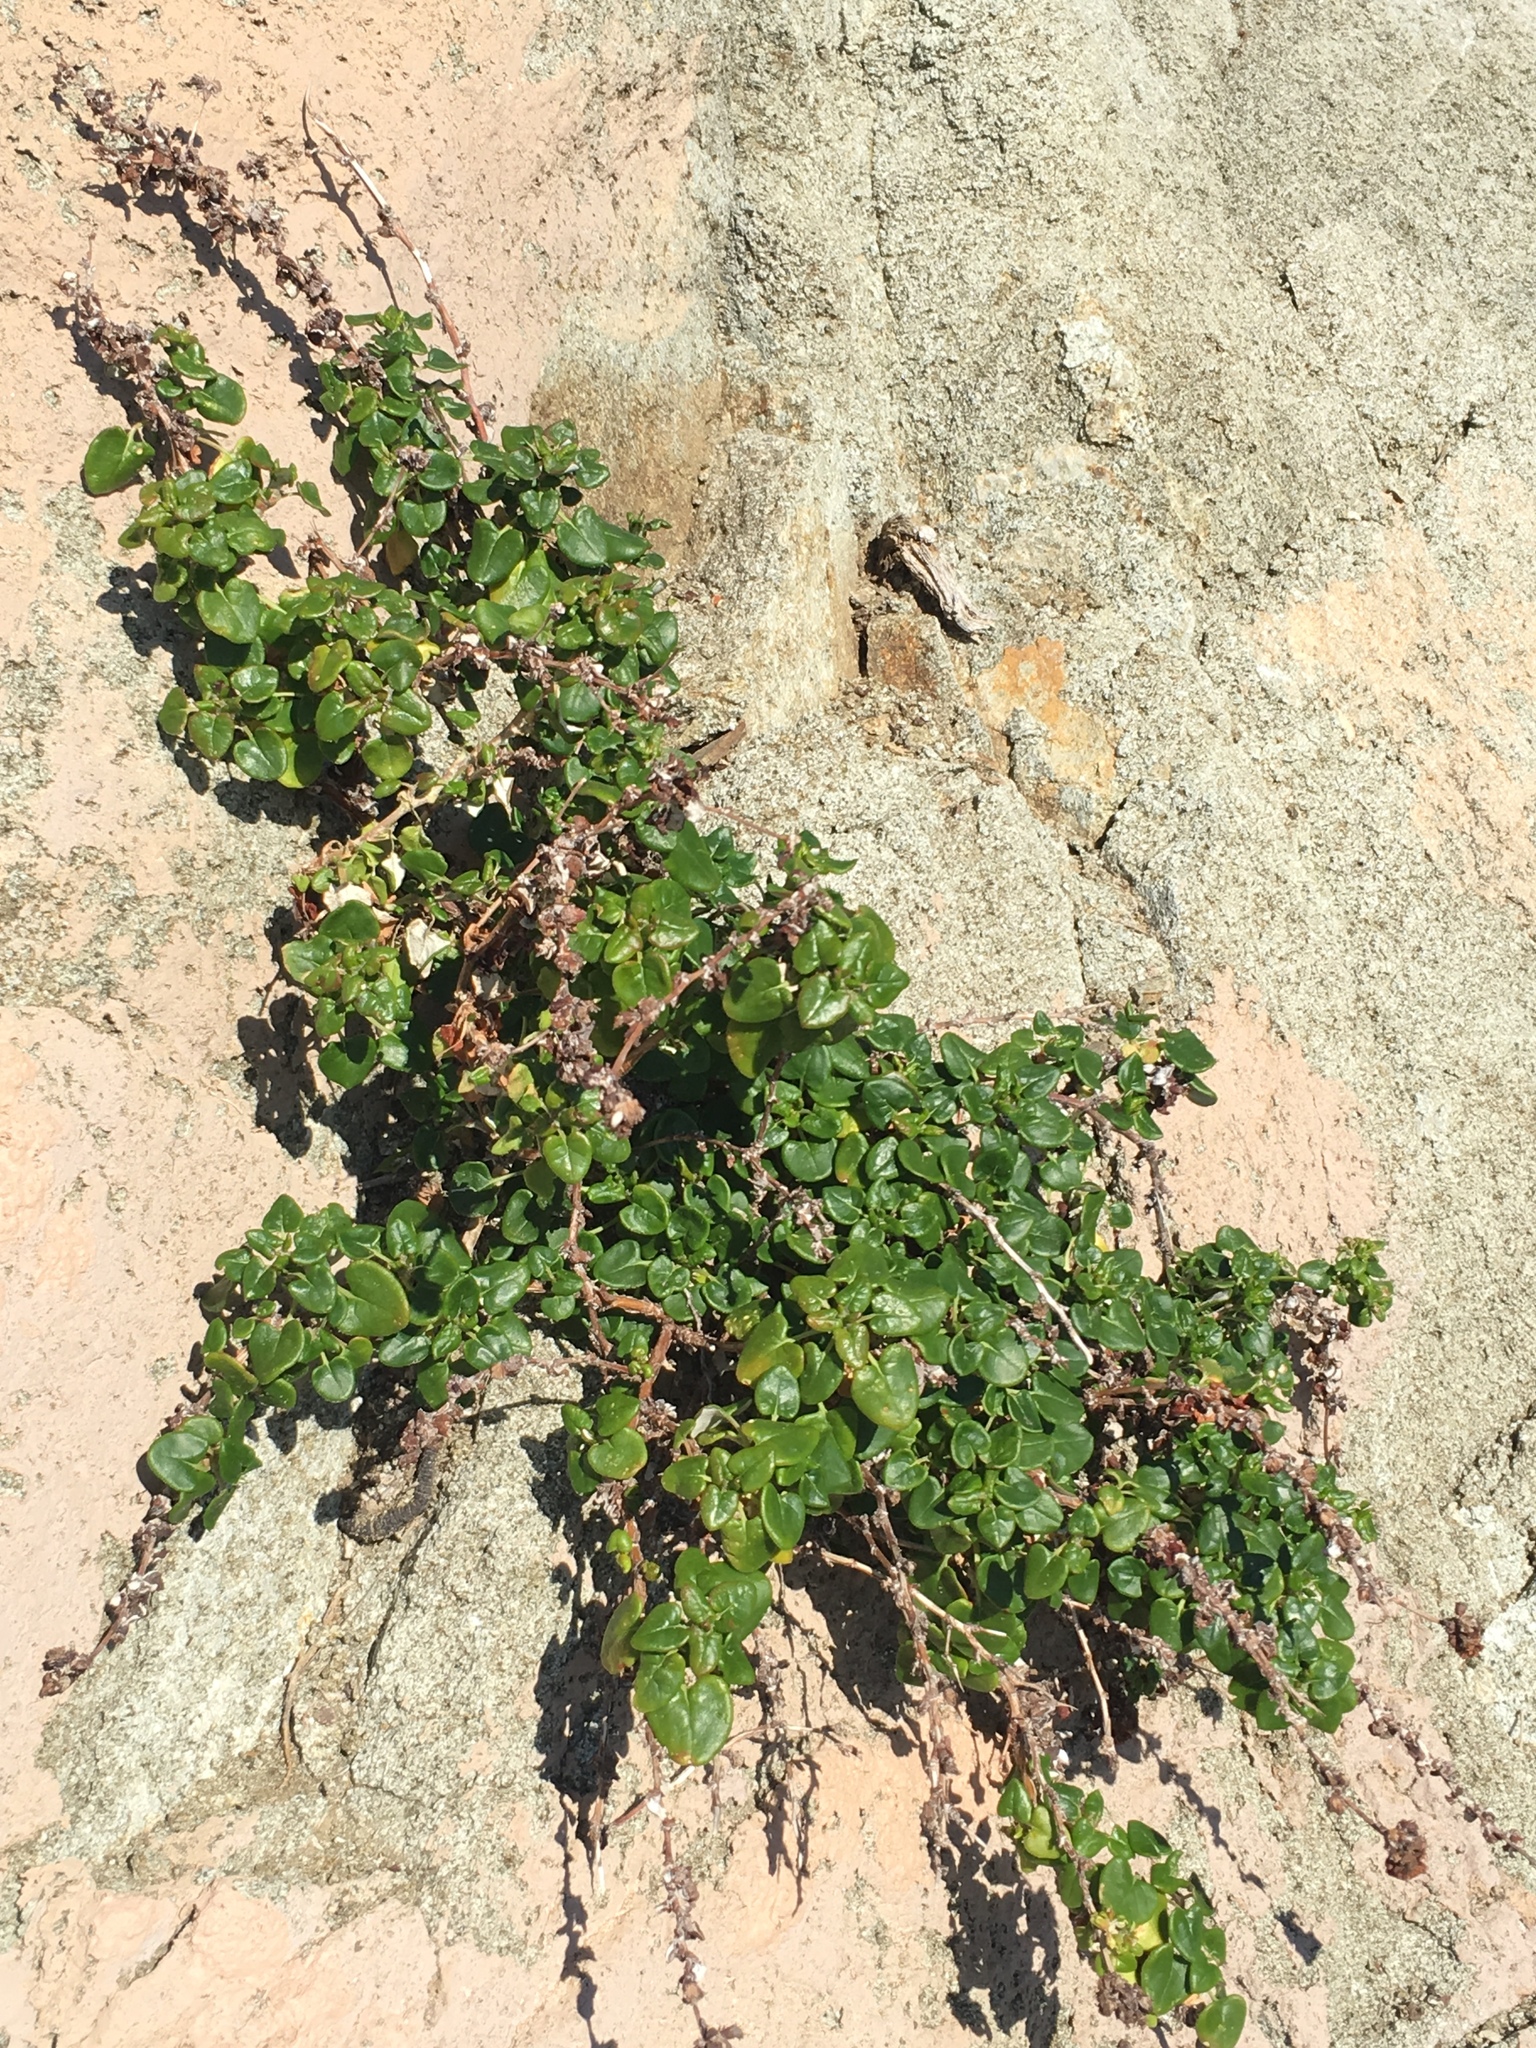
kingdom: Plantae
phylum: Tracheophyta
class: Magnoliopsida
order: Caryophyllales
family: Polygonaceae
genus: Eriogonum
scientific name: Eriogonum parvifolium
